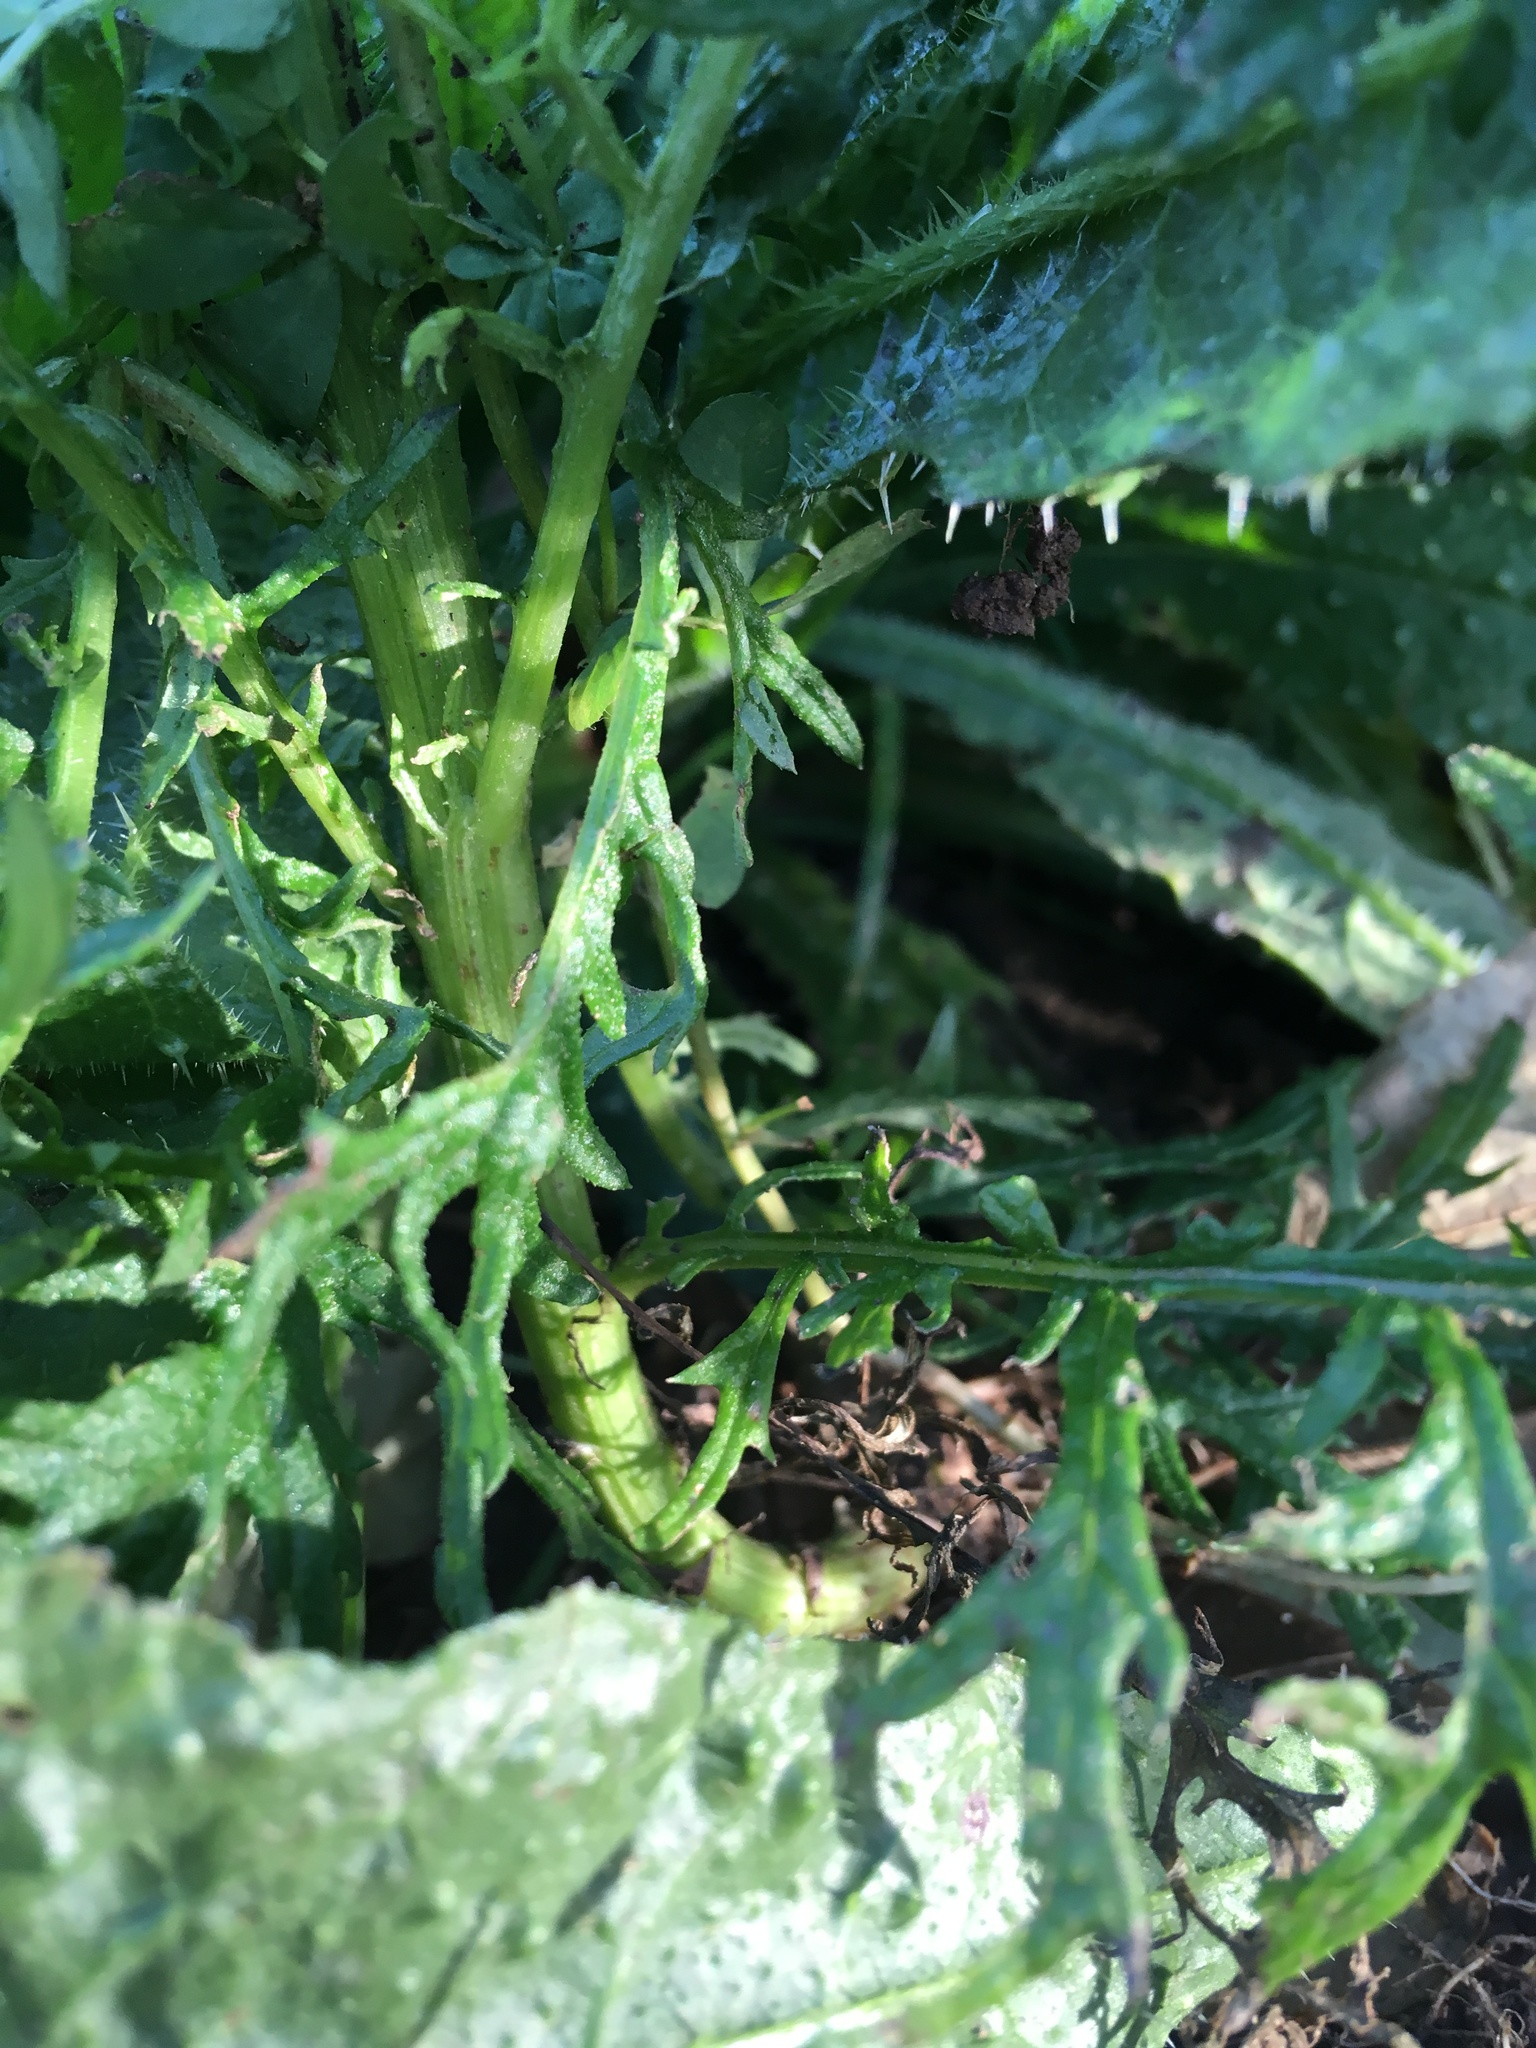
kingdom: Plantae
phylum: Tracheophyta
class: Magnoliopsida
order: Asterales
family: Asteraceae
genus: Senecio
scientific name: Senecio bipinnatisectus
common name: Australian fireweed
